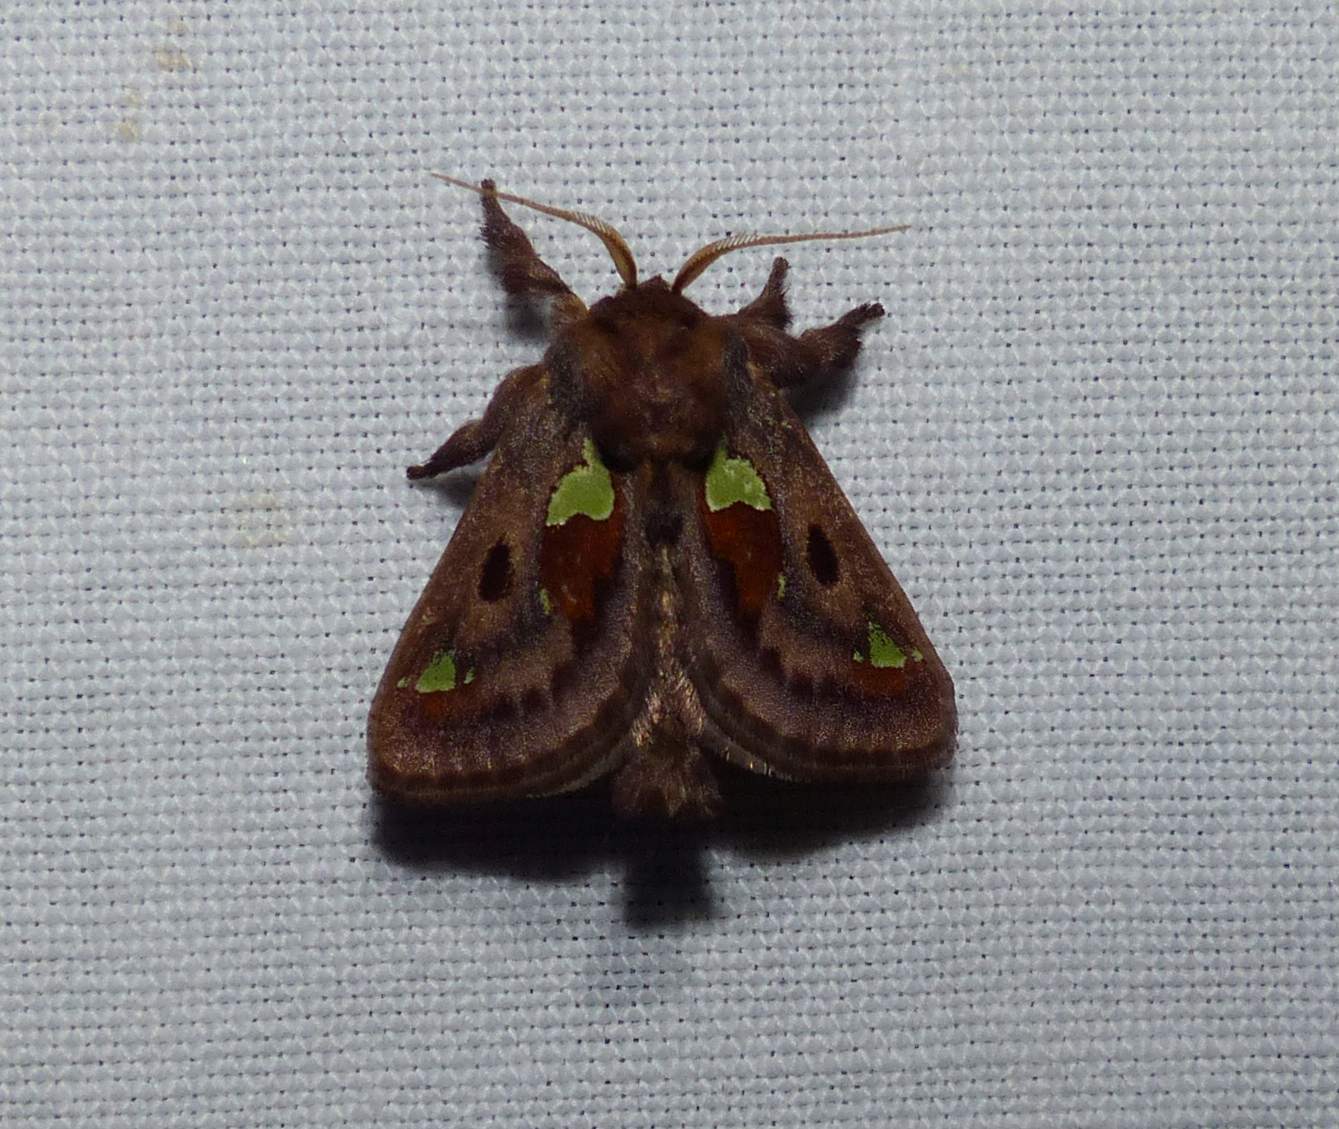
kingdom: Animalia
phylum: Arthropoda
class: Insecta
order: Lepidoptera
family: Limacodidae
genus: Euclea
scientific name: Euclea delphinii
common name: Spiny oak-slug moth
